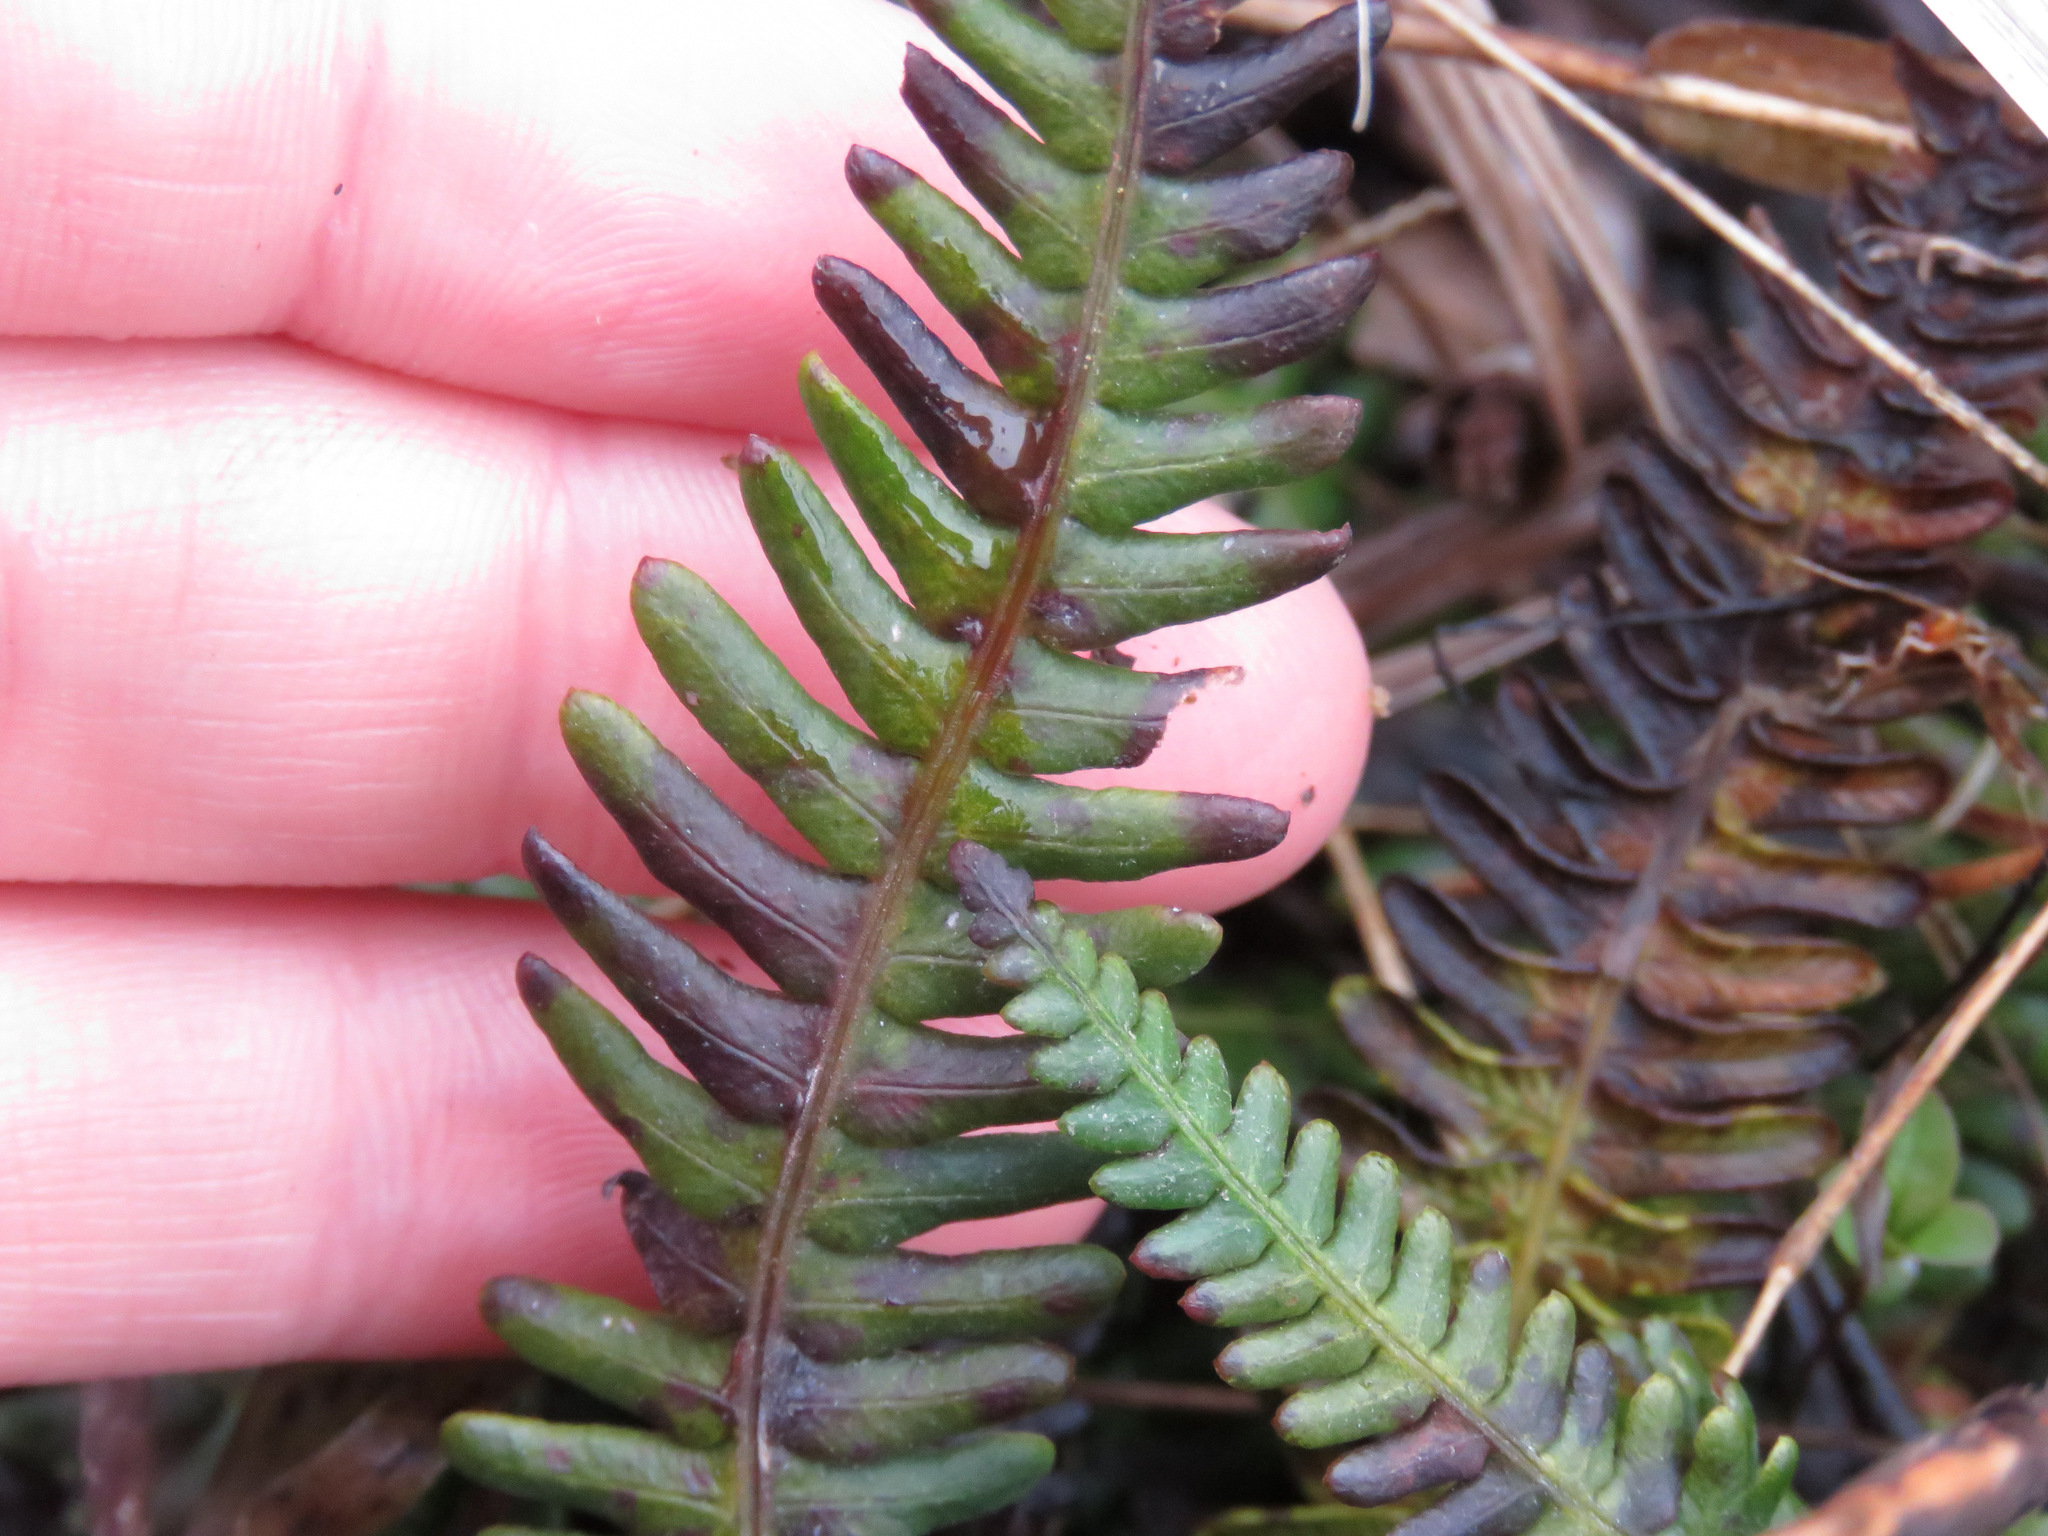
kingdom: Plantae
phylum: Tracheophyta
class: Polypodiopsida
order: Polypodiales
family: Blechnaceae
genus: Struthiopteris
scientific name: Struthiopteris spicant
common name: Deer fern
